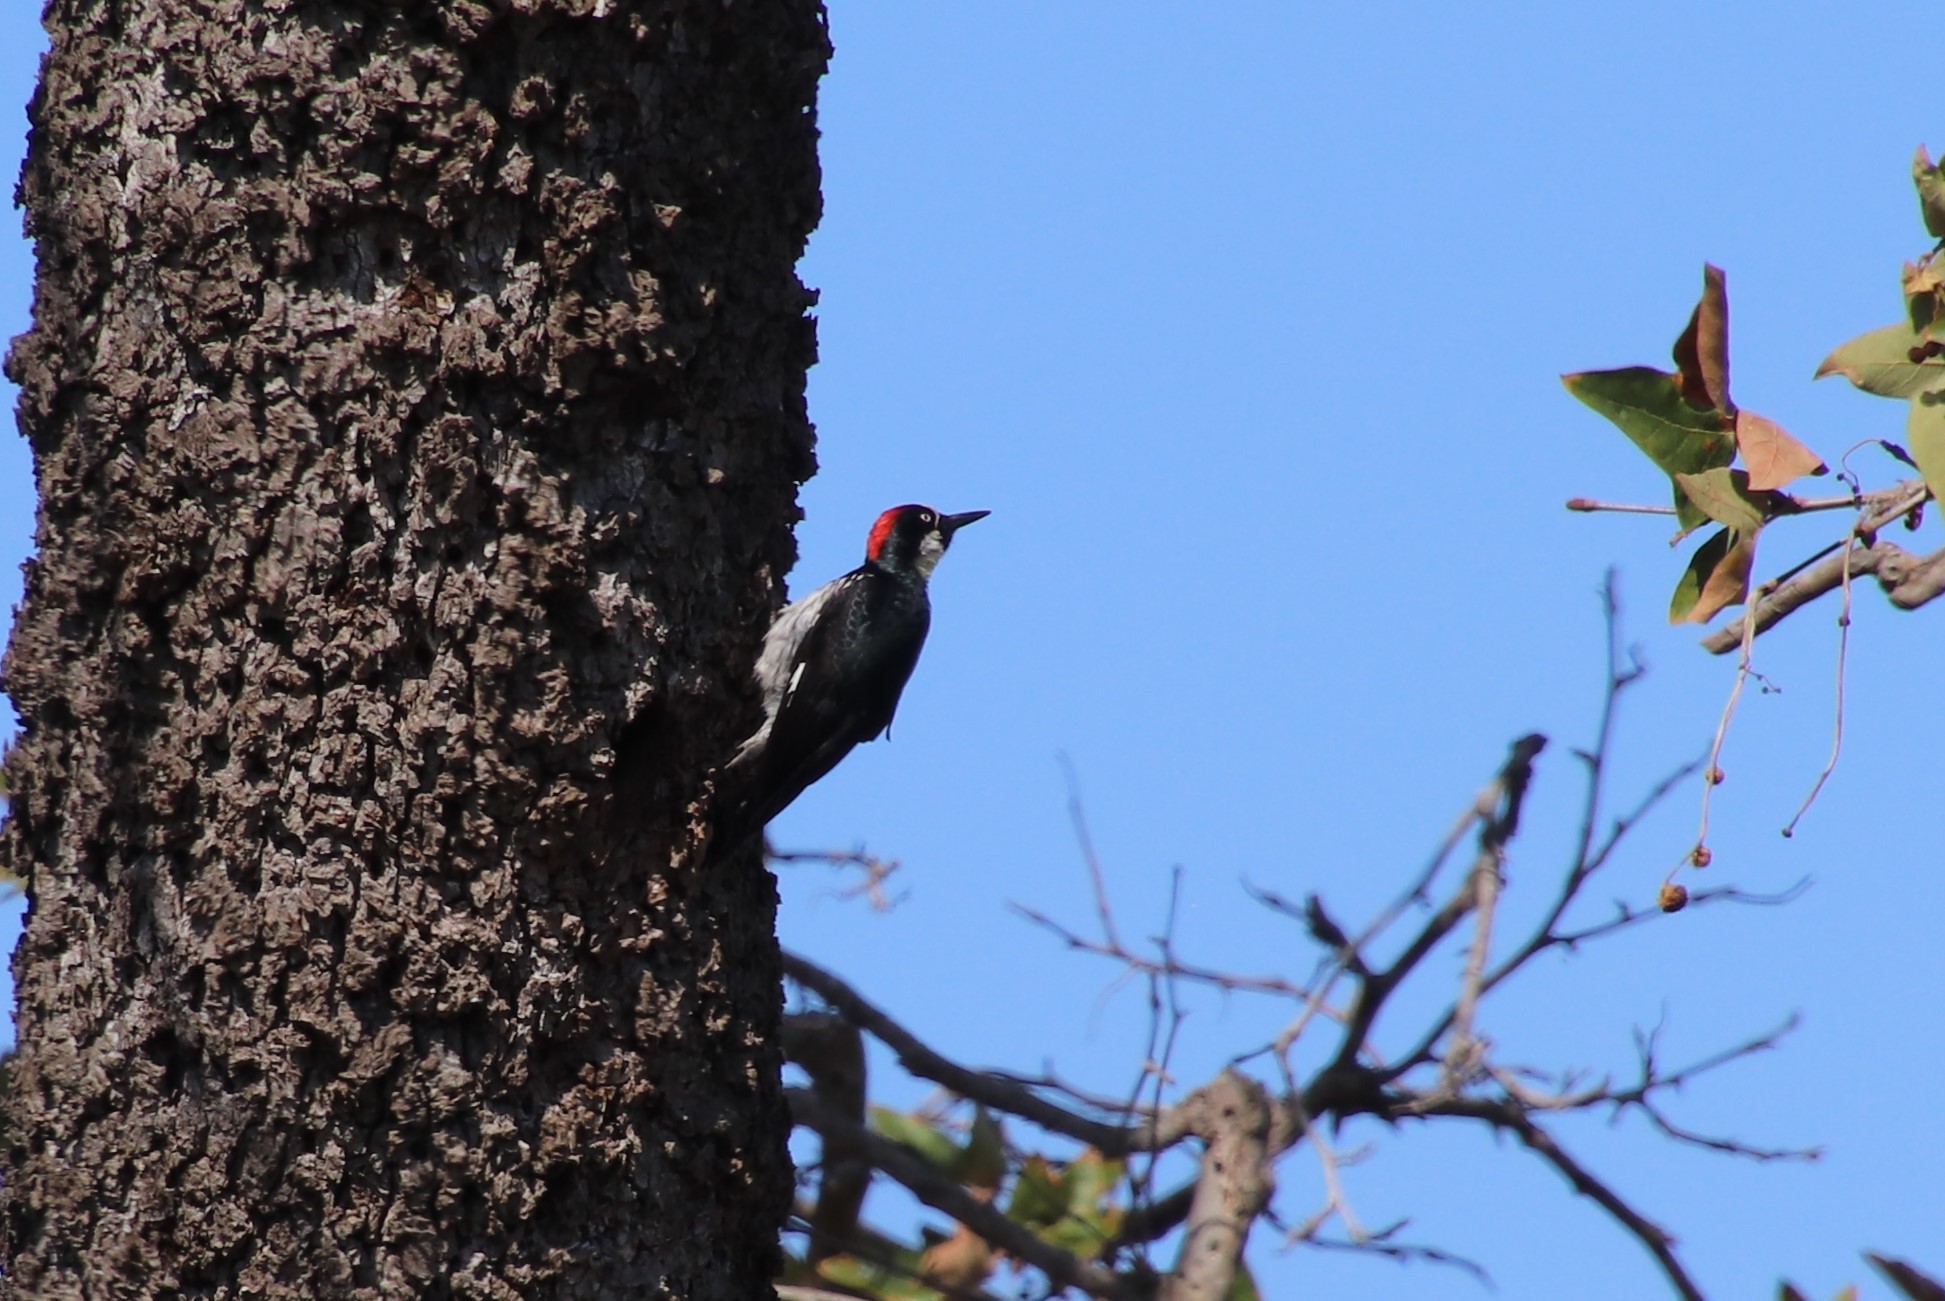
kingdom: Animalia
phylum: Chordata
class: Aves
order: Piciformes
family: Picidae
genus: Melanerpes
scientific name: Melanerpes formicivorus
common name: Acorn woodpecker
